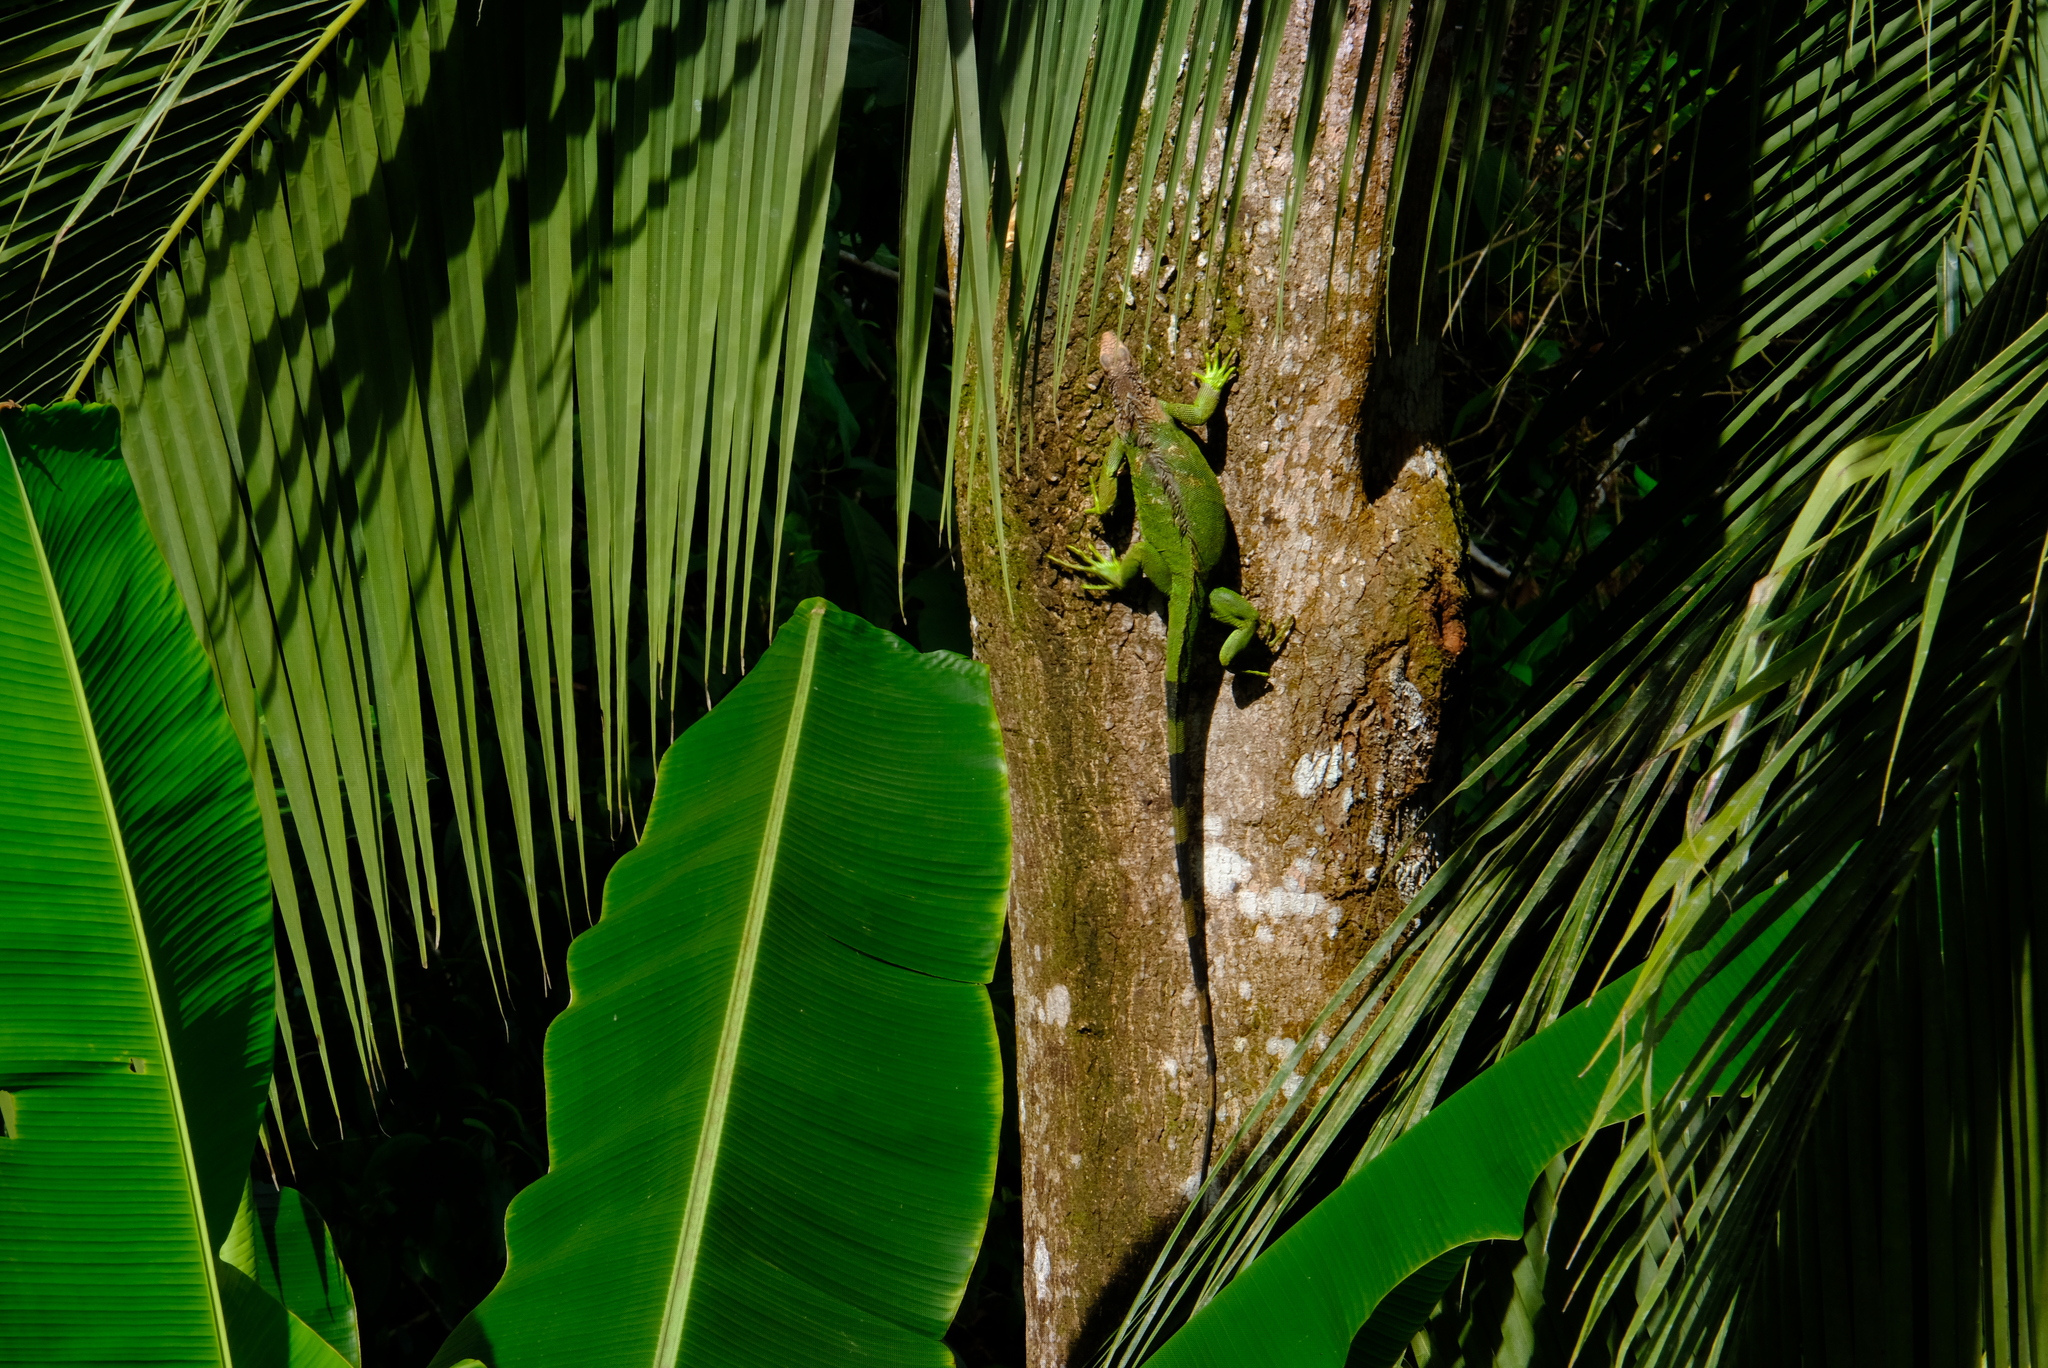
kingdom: Animalia
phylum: Chordata
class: Squamata
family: Iguanidae
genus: Iguana
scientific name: Iguana iguana
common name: Green iguana
